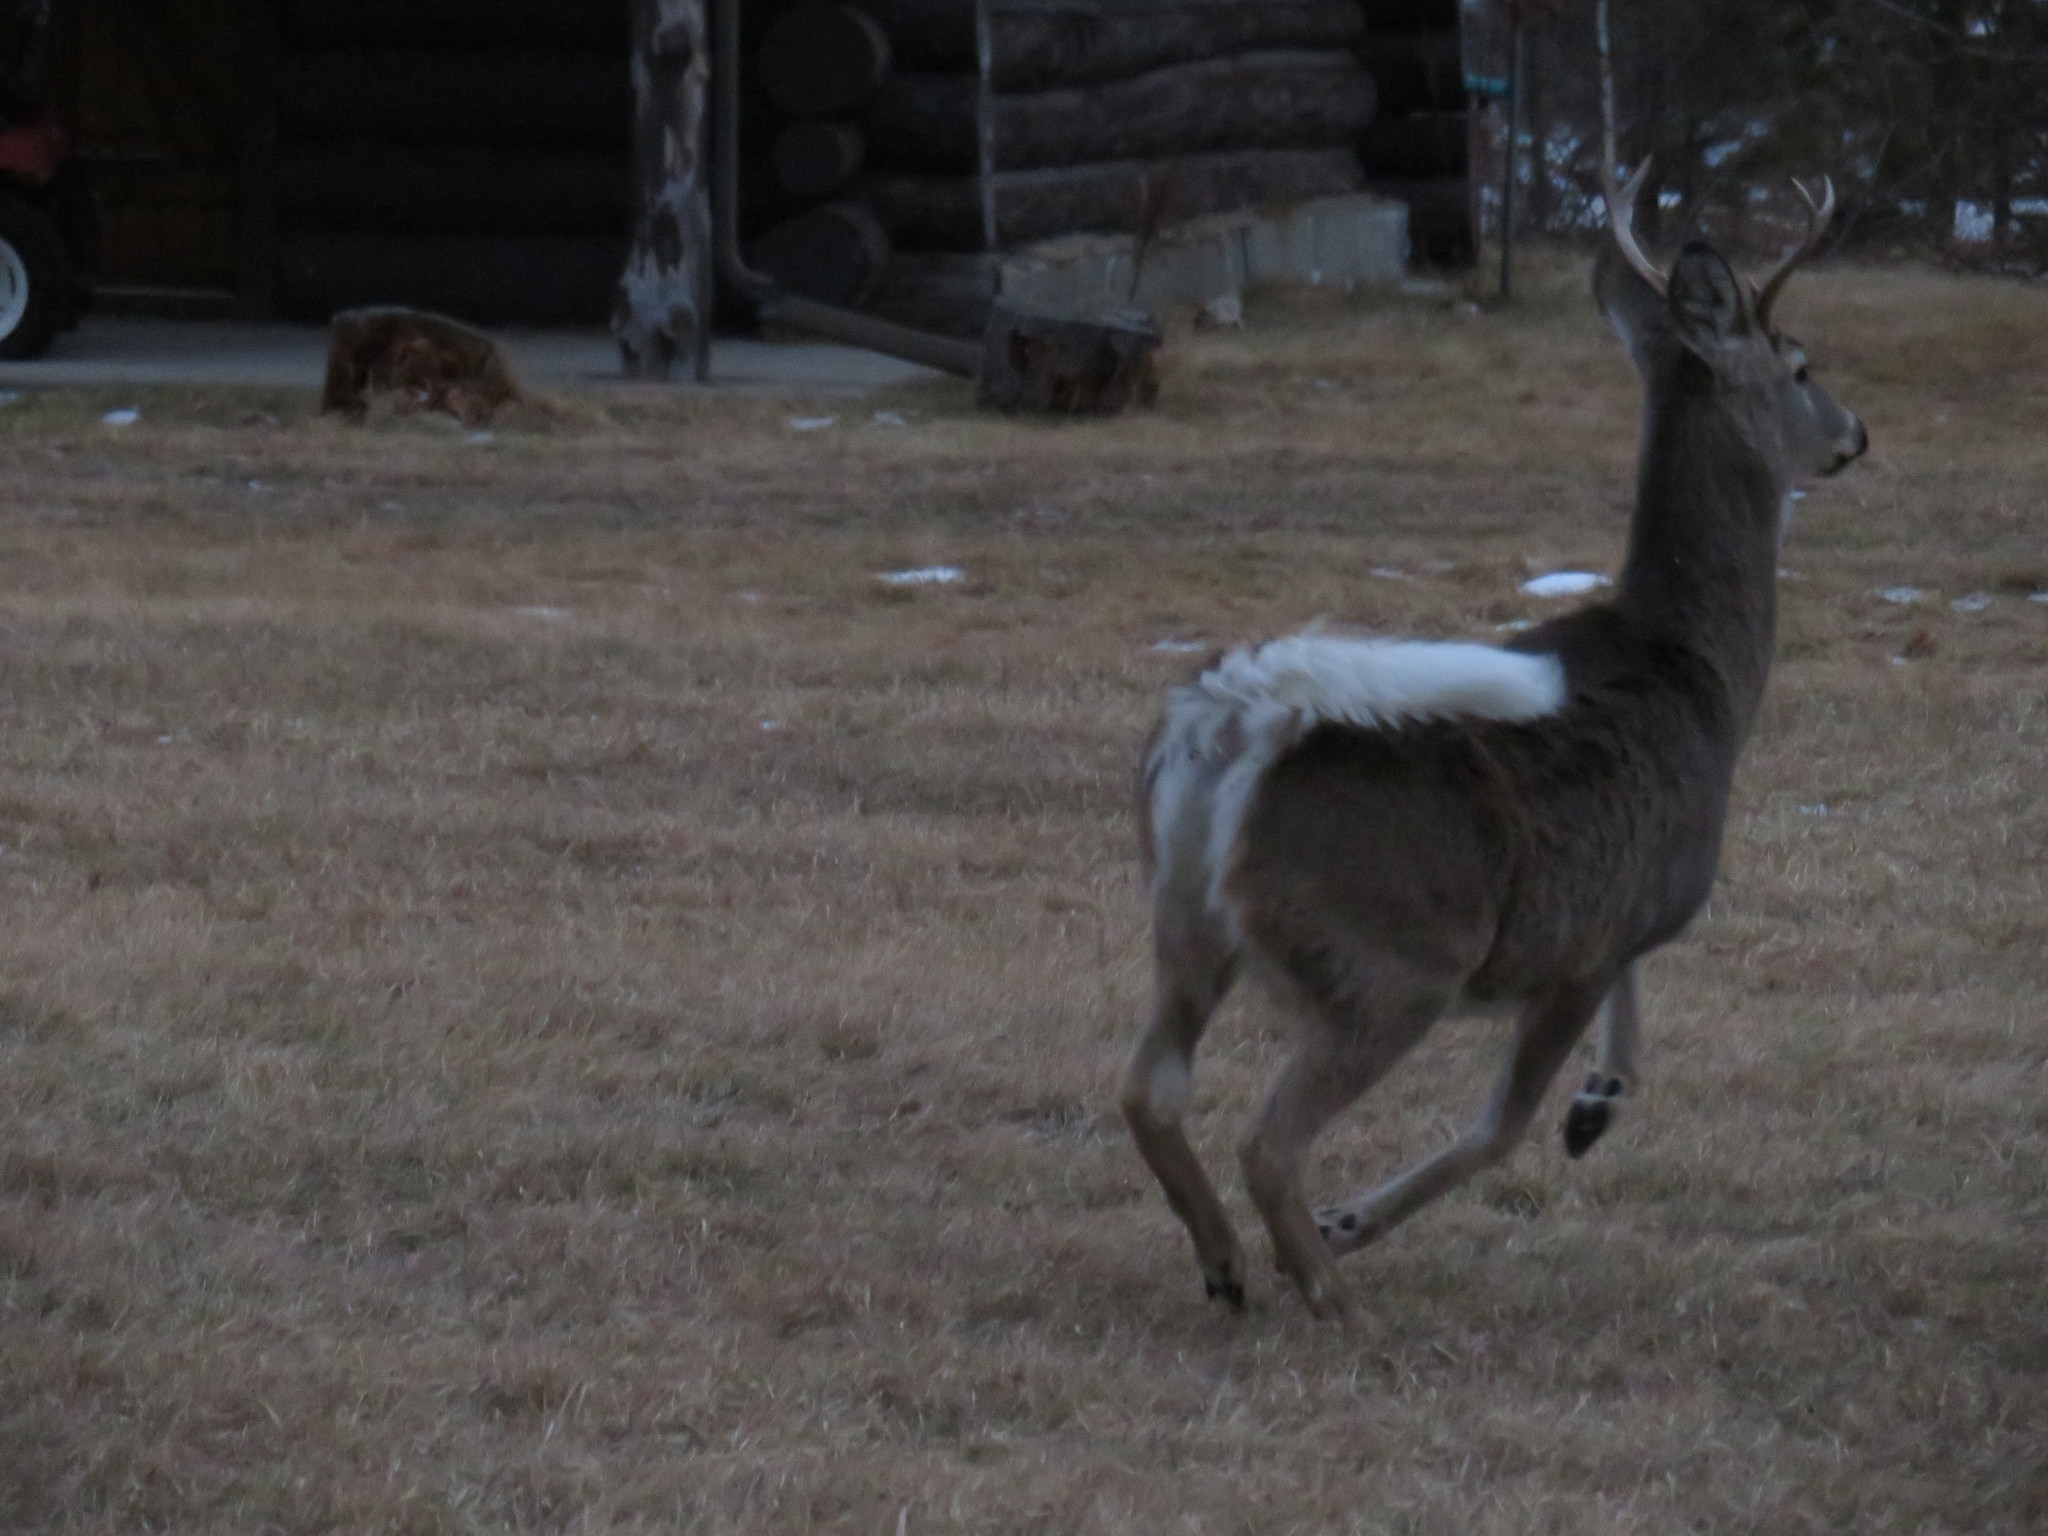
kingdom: Animalia
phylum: Chordata
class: Mammalia
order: Artiodactyla
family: Cervidae
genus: Odocoileus
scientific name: Odocoileus virginianus
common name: White-tailed deer
